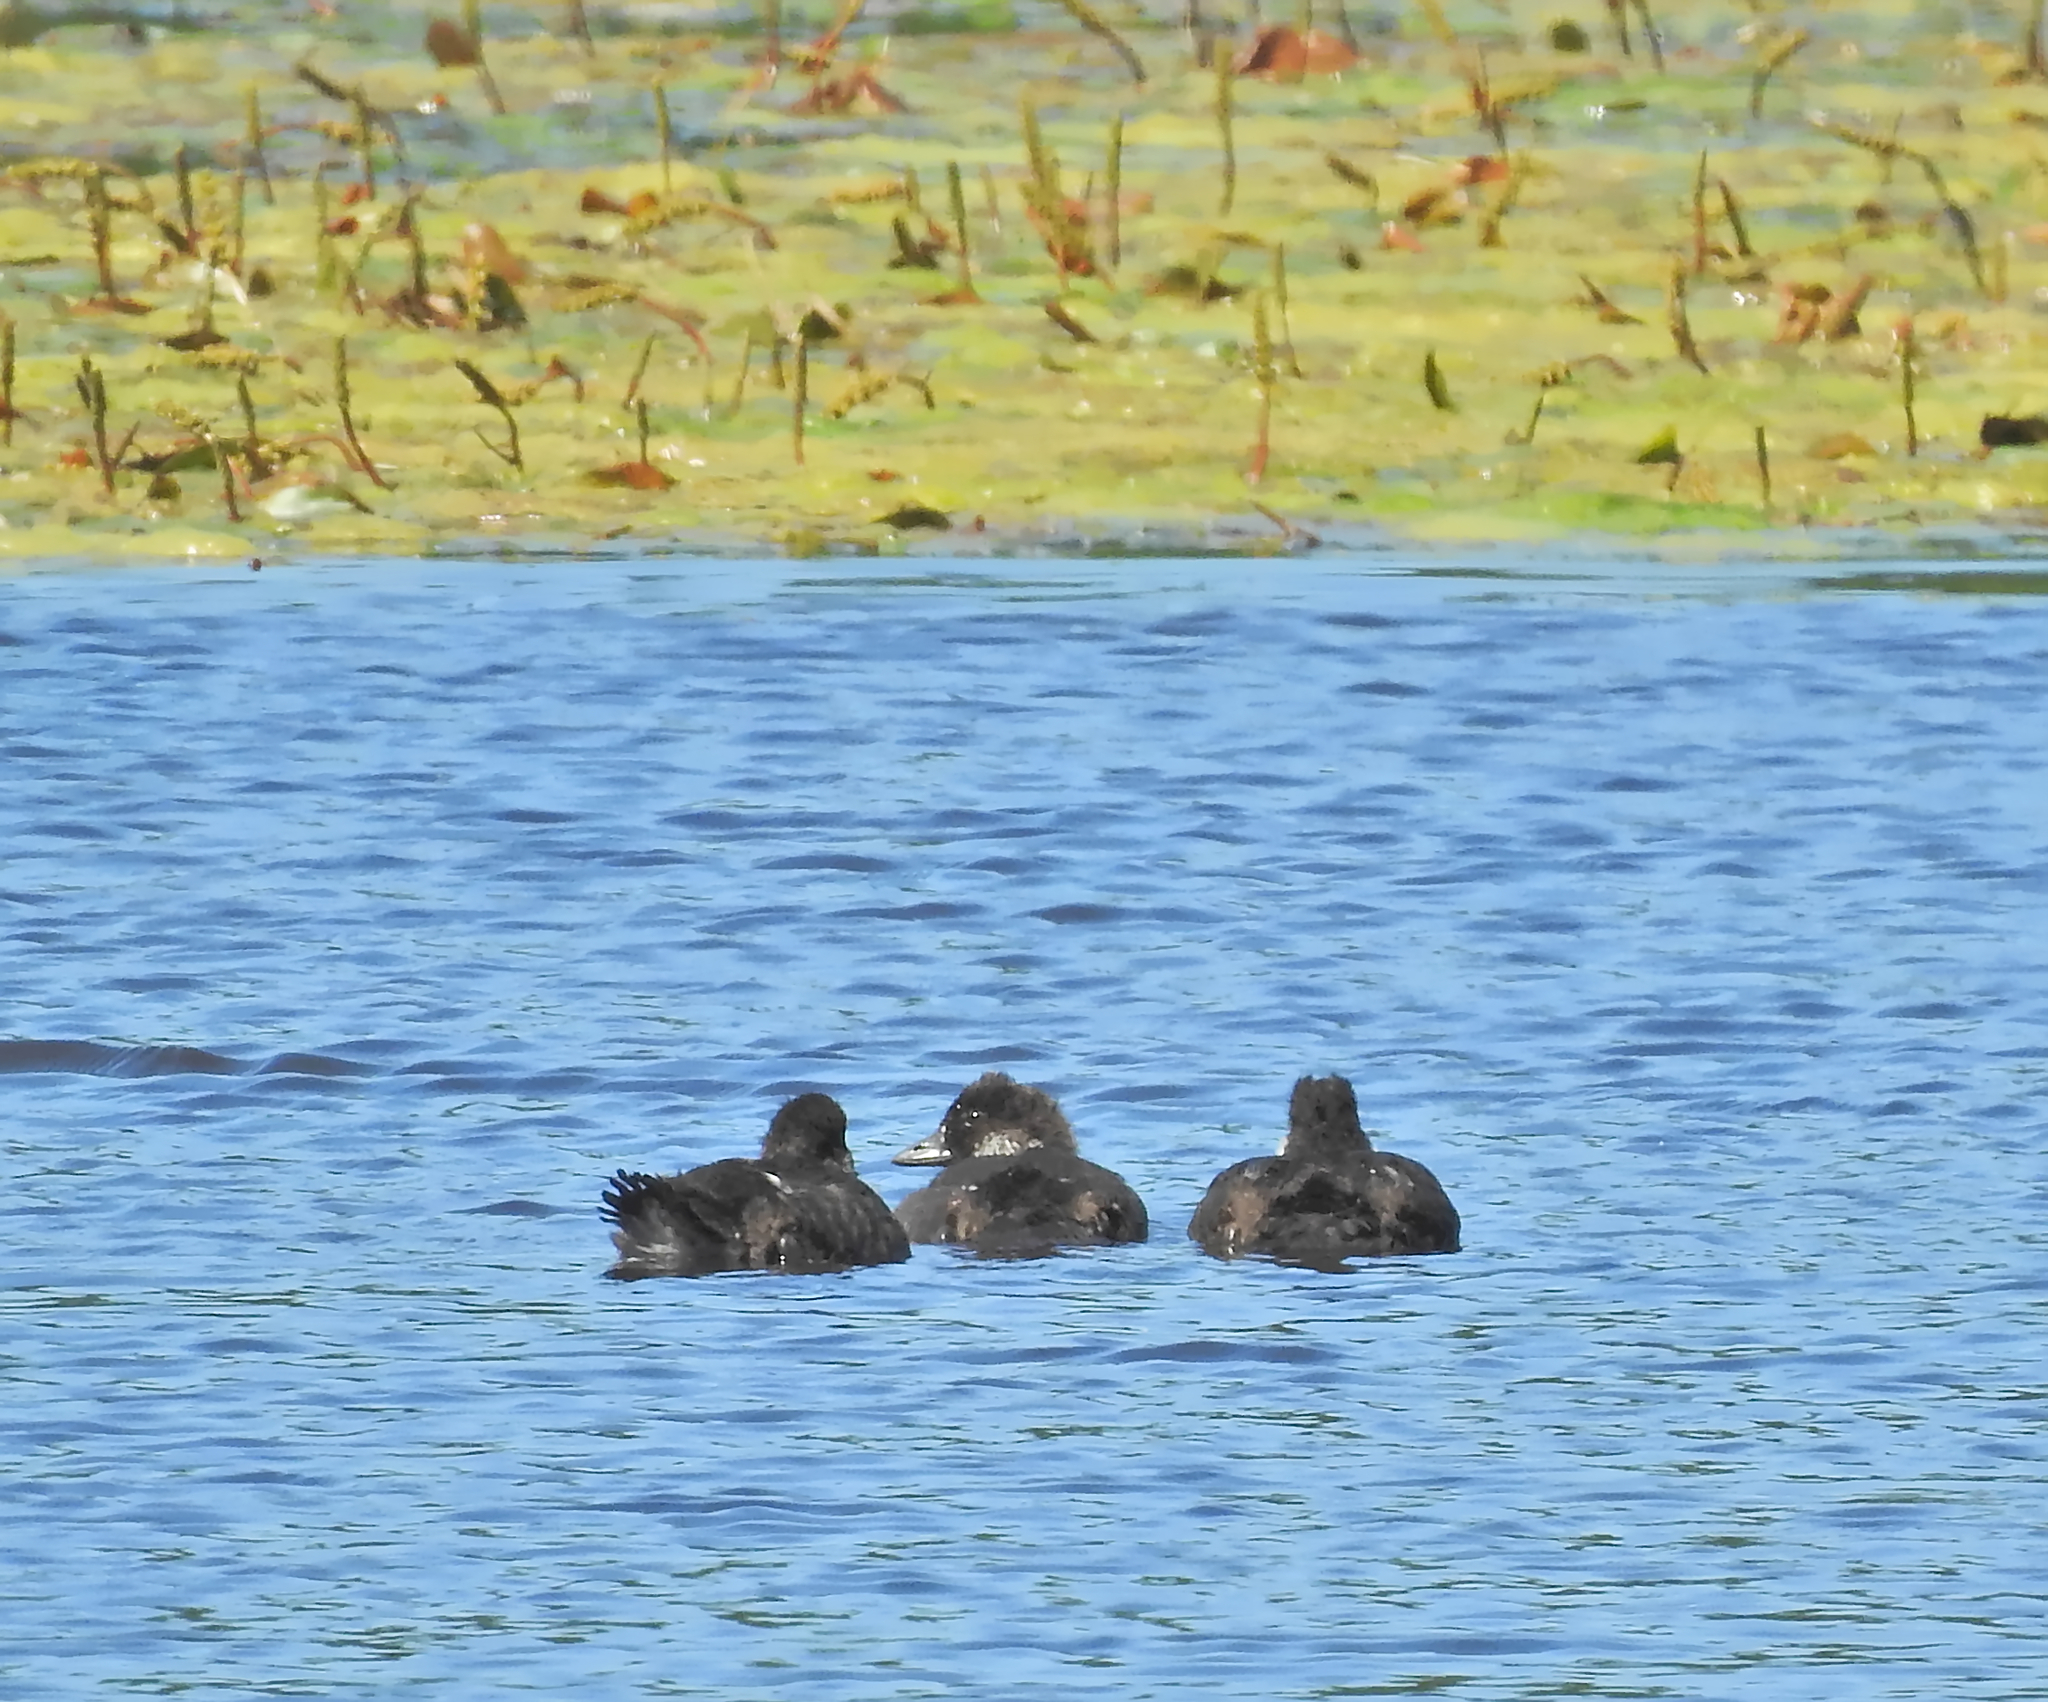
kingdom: Animalia
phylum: Chordata
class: Aves
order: Anseriformes
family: Anatidae
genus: Bucephala
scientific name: Bucephala clangula
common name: Common goldeneye
